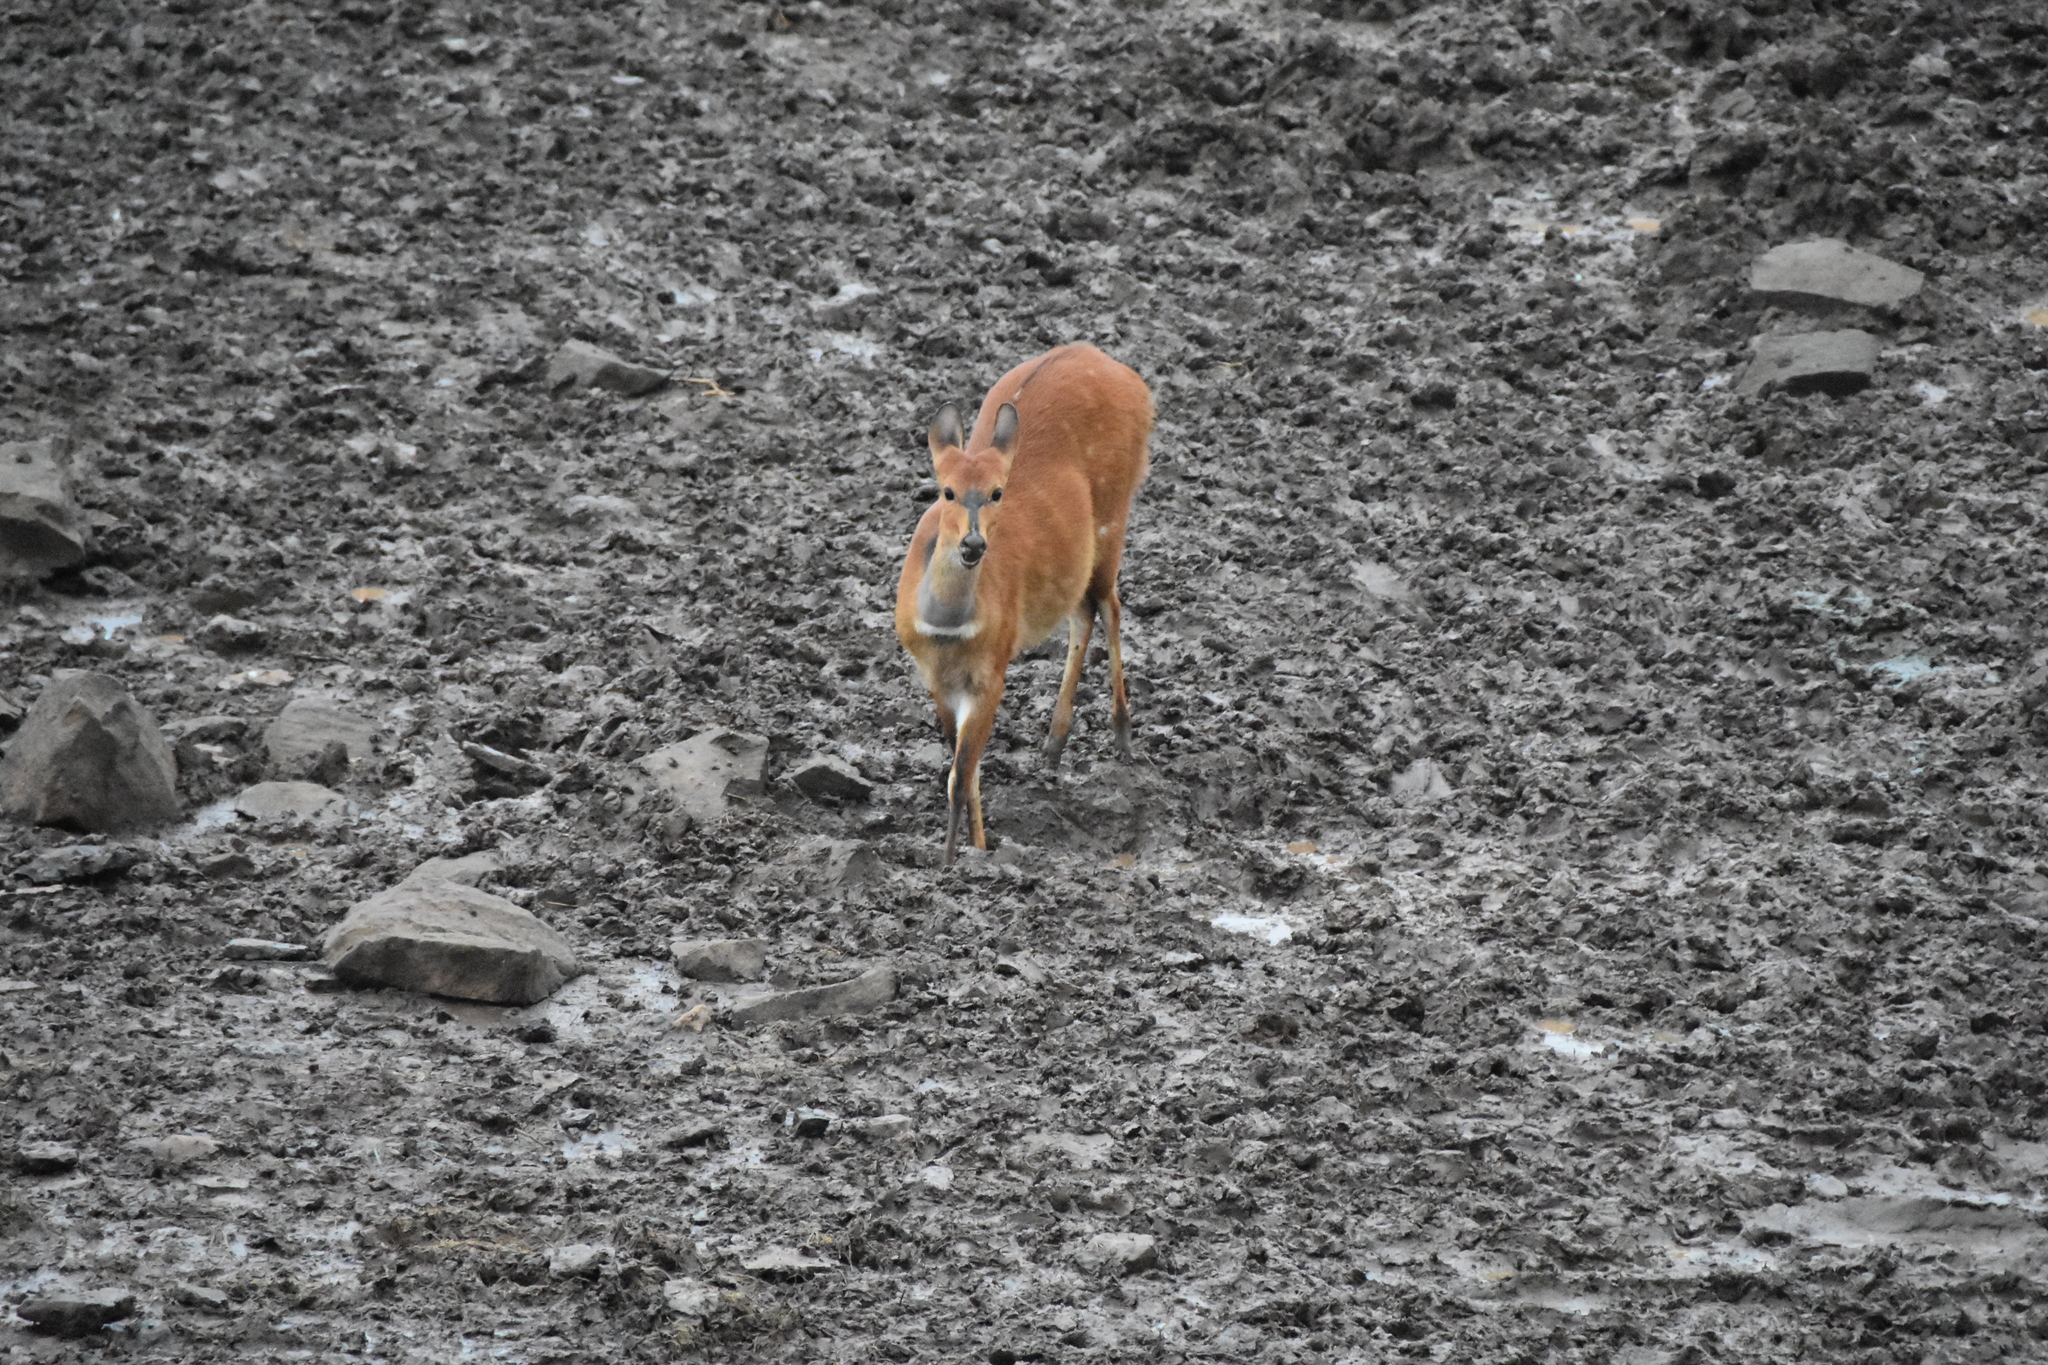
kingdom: Animalia
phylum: Chordata
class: Mammalia
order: Artiodactyla
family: Bovidae
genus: Tragelaphus
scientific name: Tragelaphus scriptus
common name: Bushbuck
